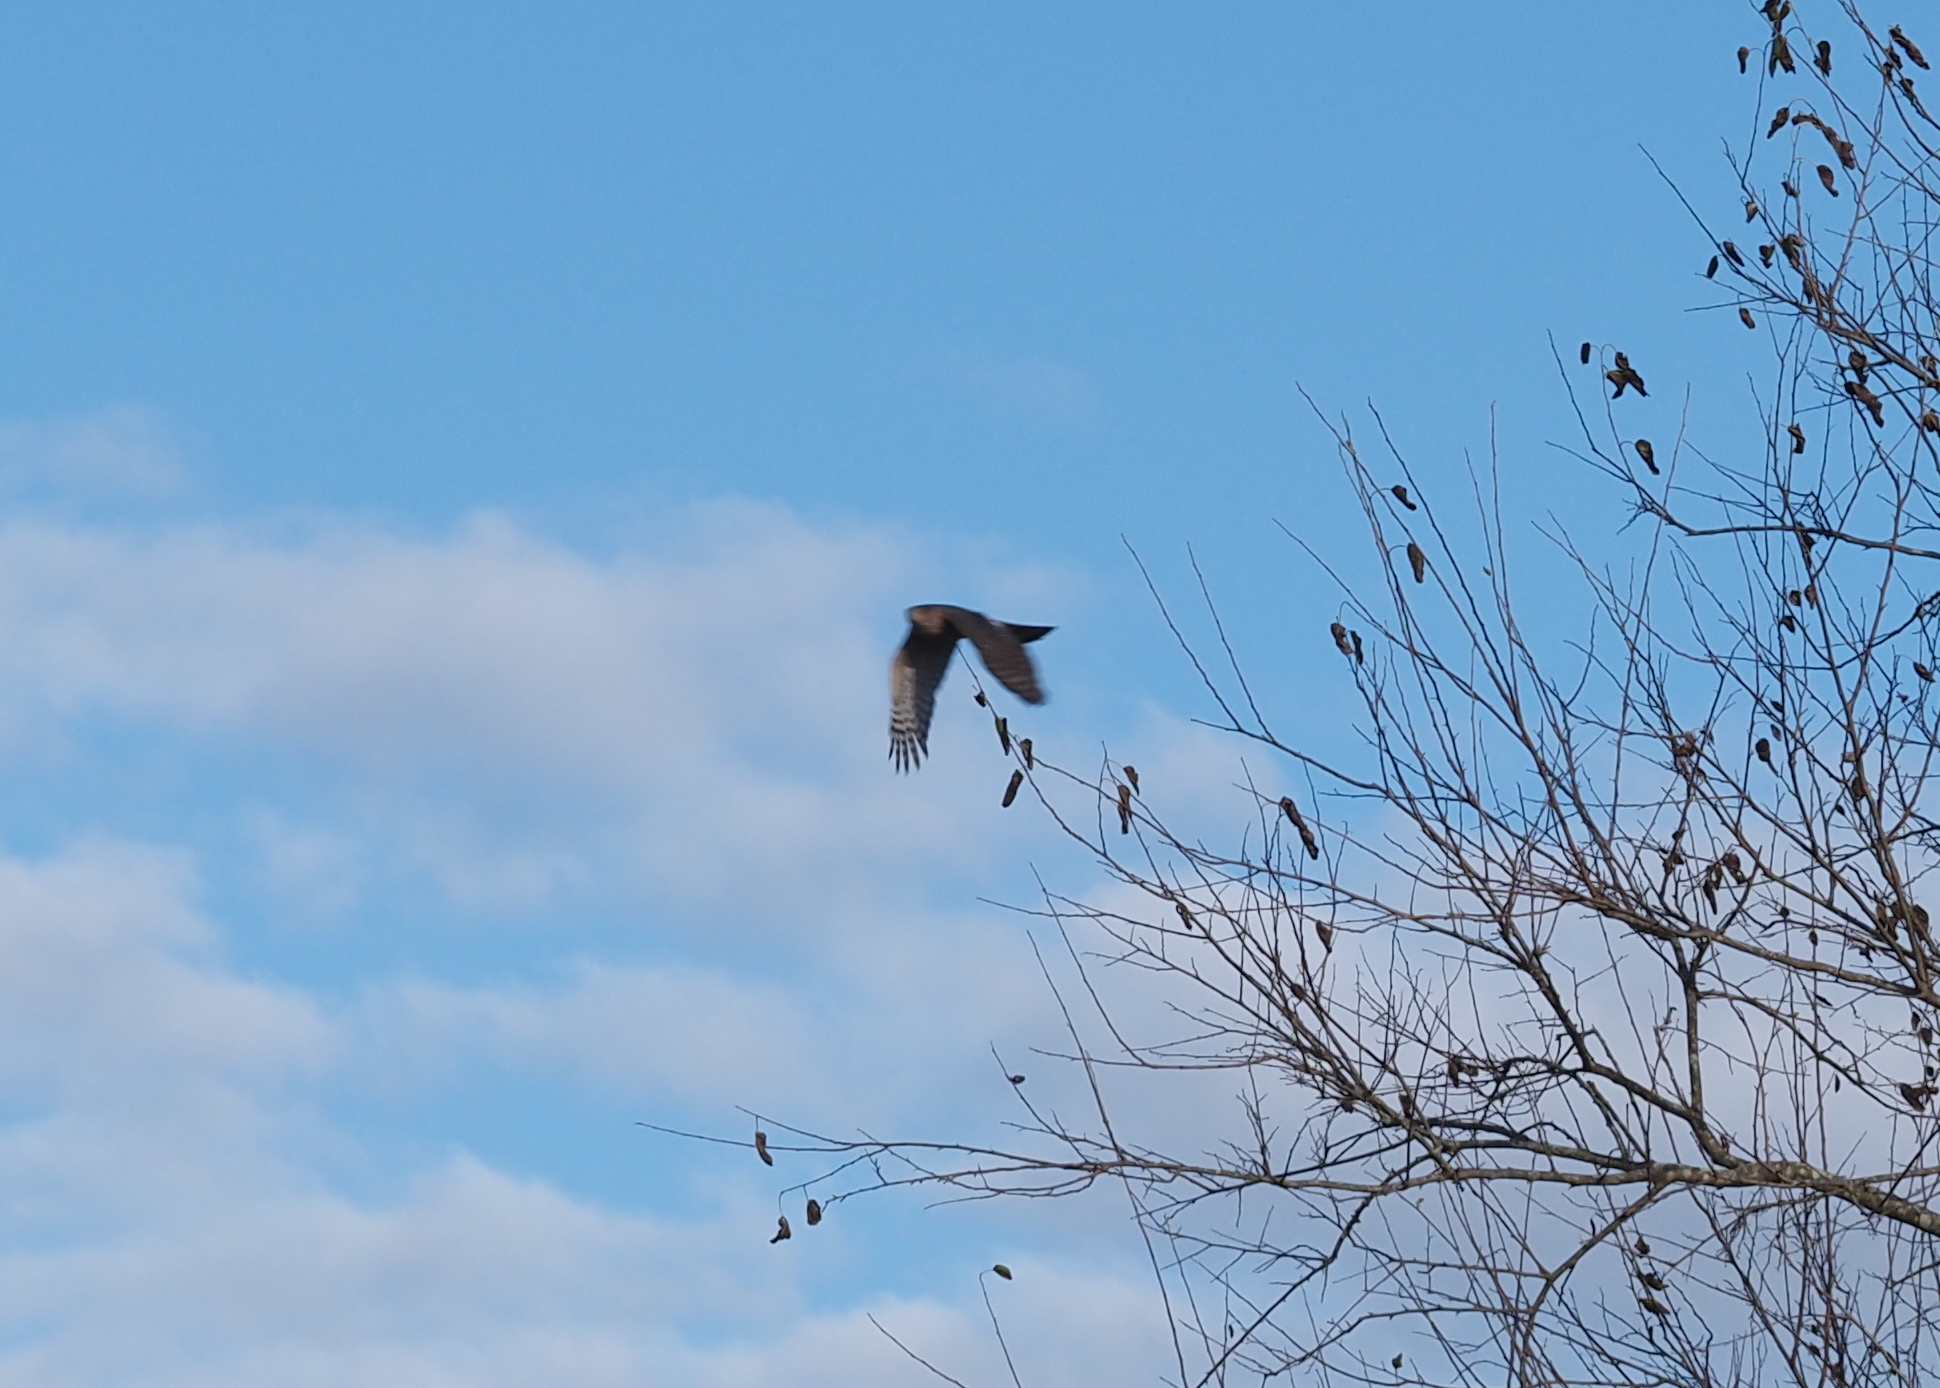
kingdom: Animalia
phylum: Chordata
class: Aves
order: Accipitriformes
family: Accipitridae
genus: Accipiter
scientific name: Accipiter striatus
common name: Sharp-shinned hawk
